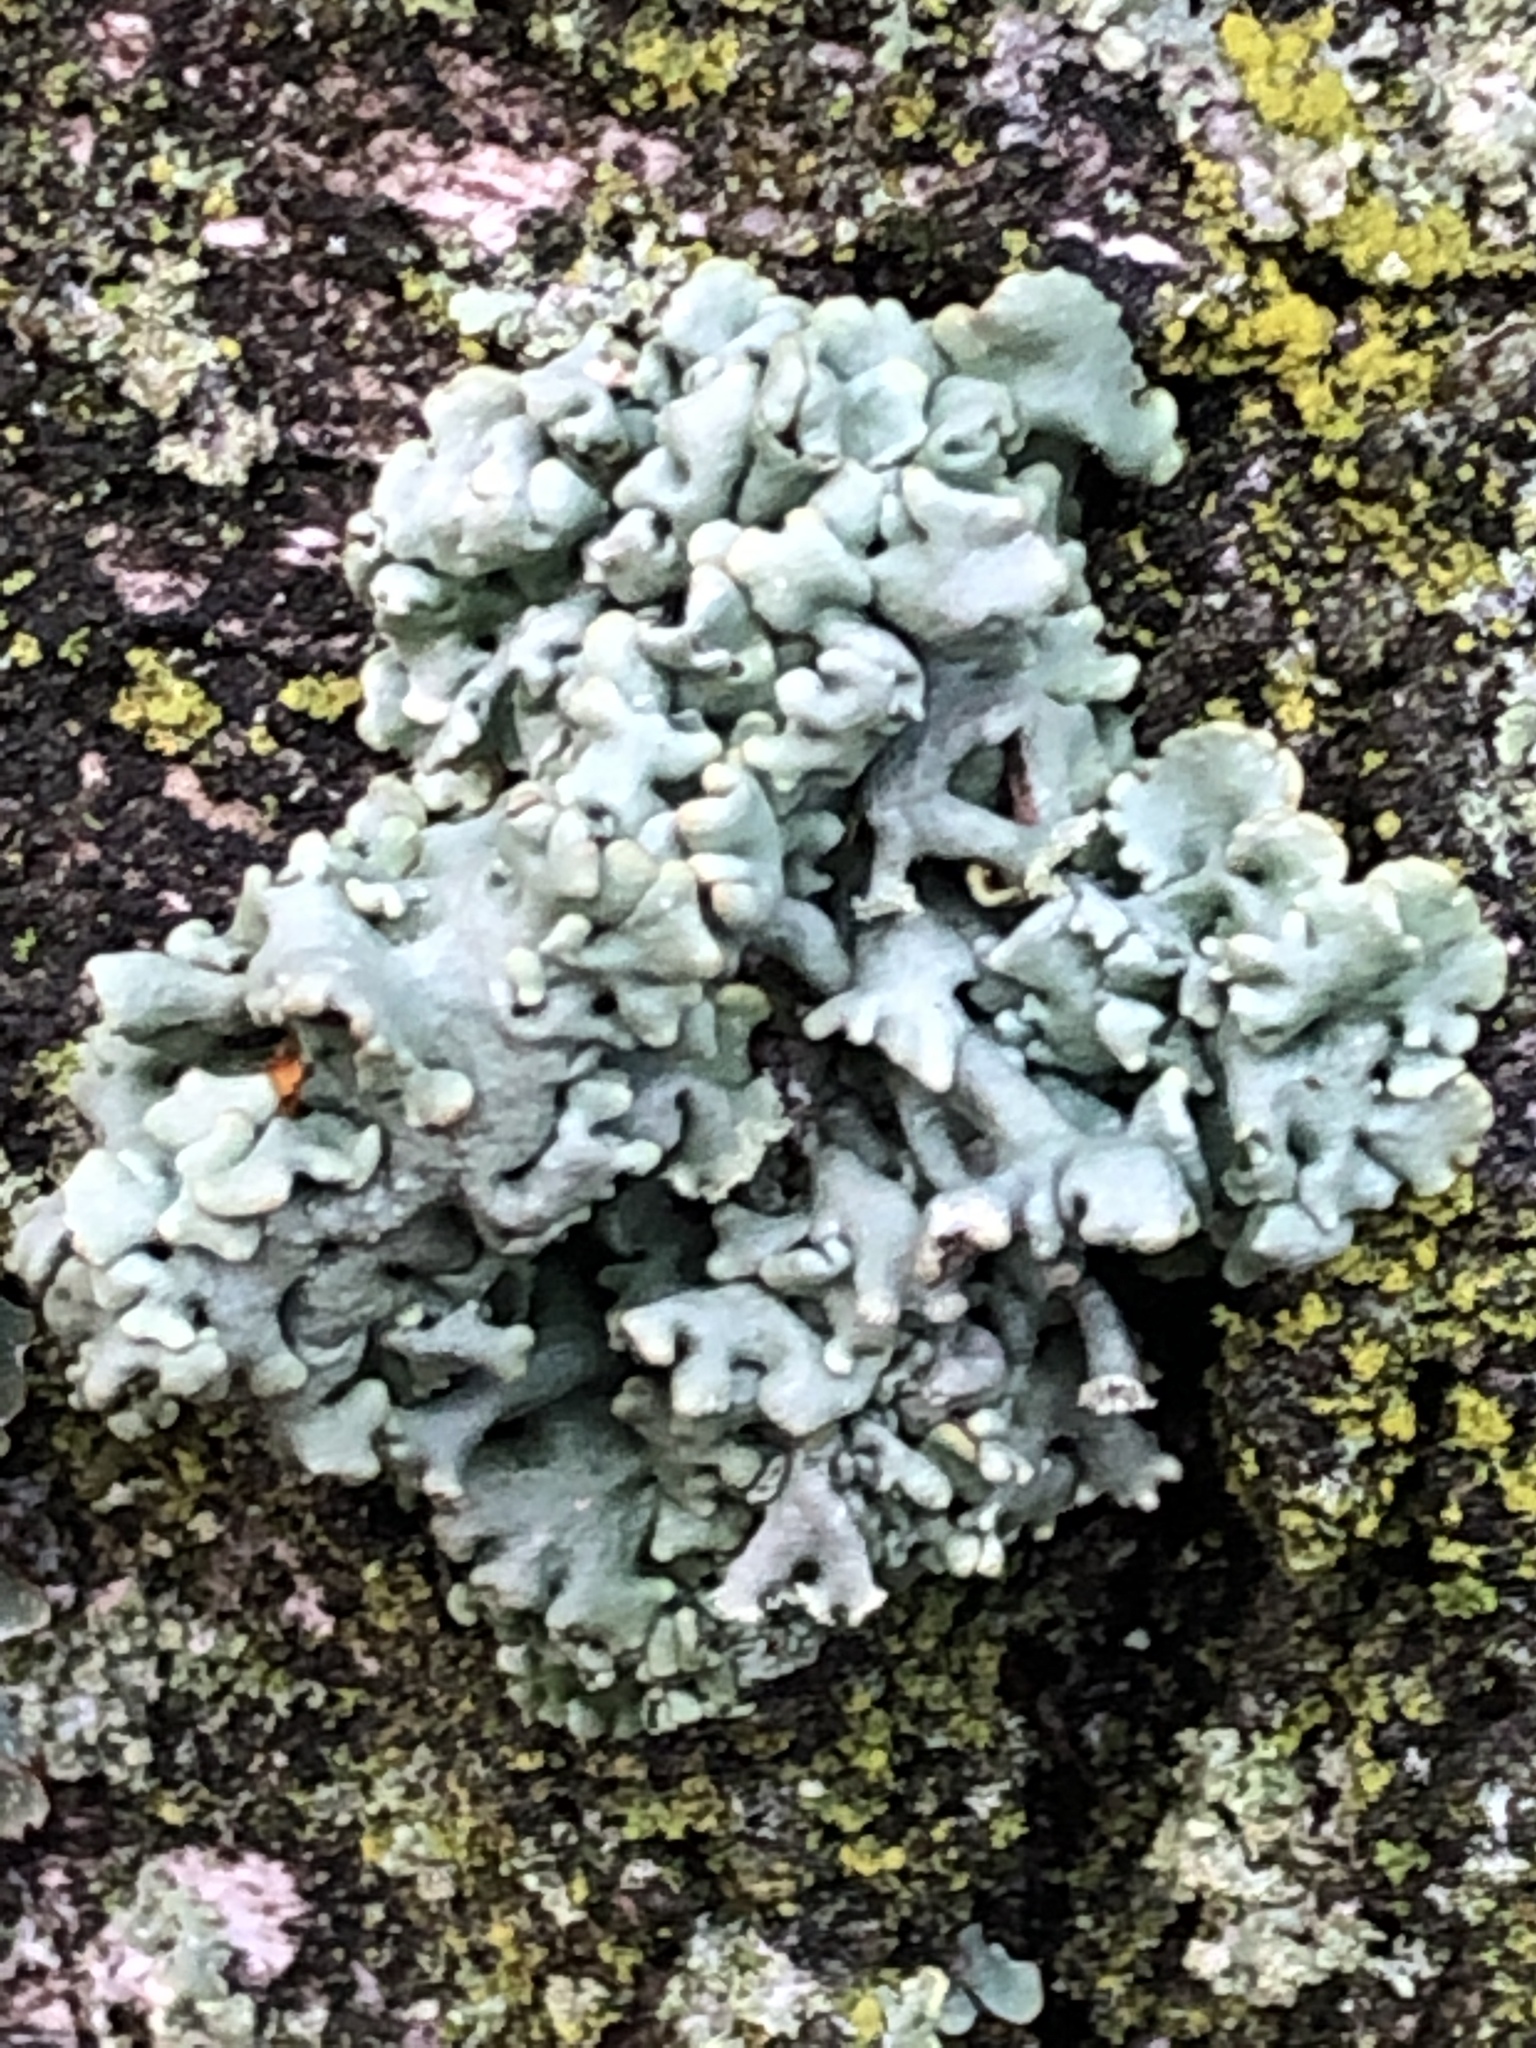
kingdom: Fungi
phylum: Ascomycota
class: Lecanoromycetes
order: Lecanorales
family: Parmeliaceae
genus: Hypogymnia
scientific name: Hypogymnia physodes
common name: Dark crottle
